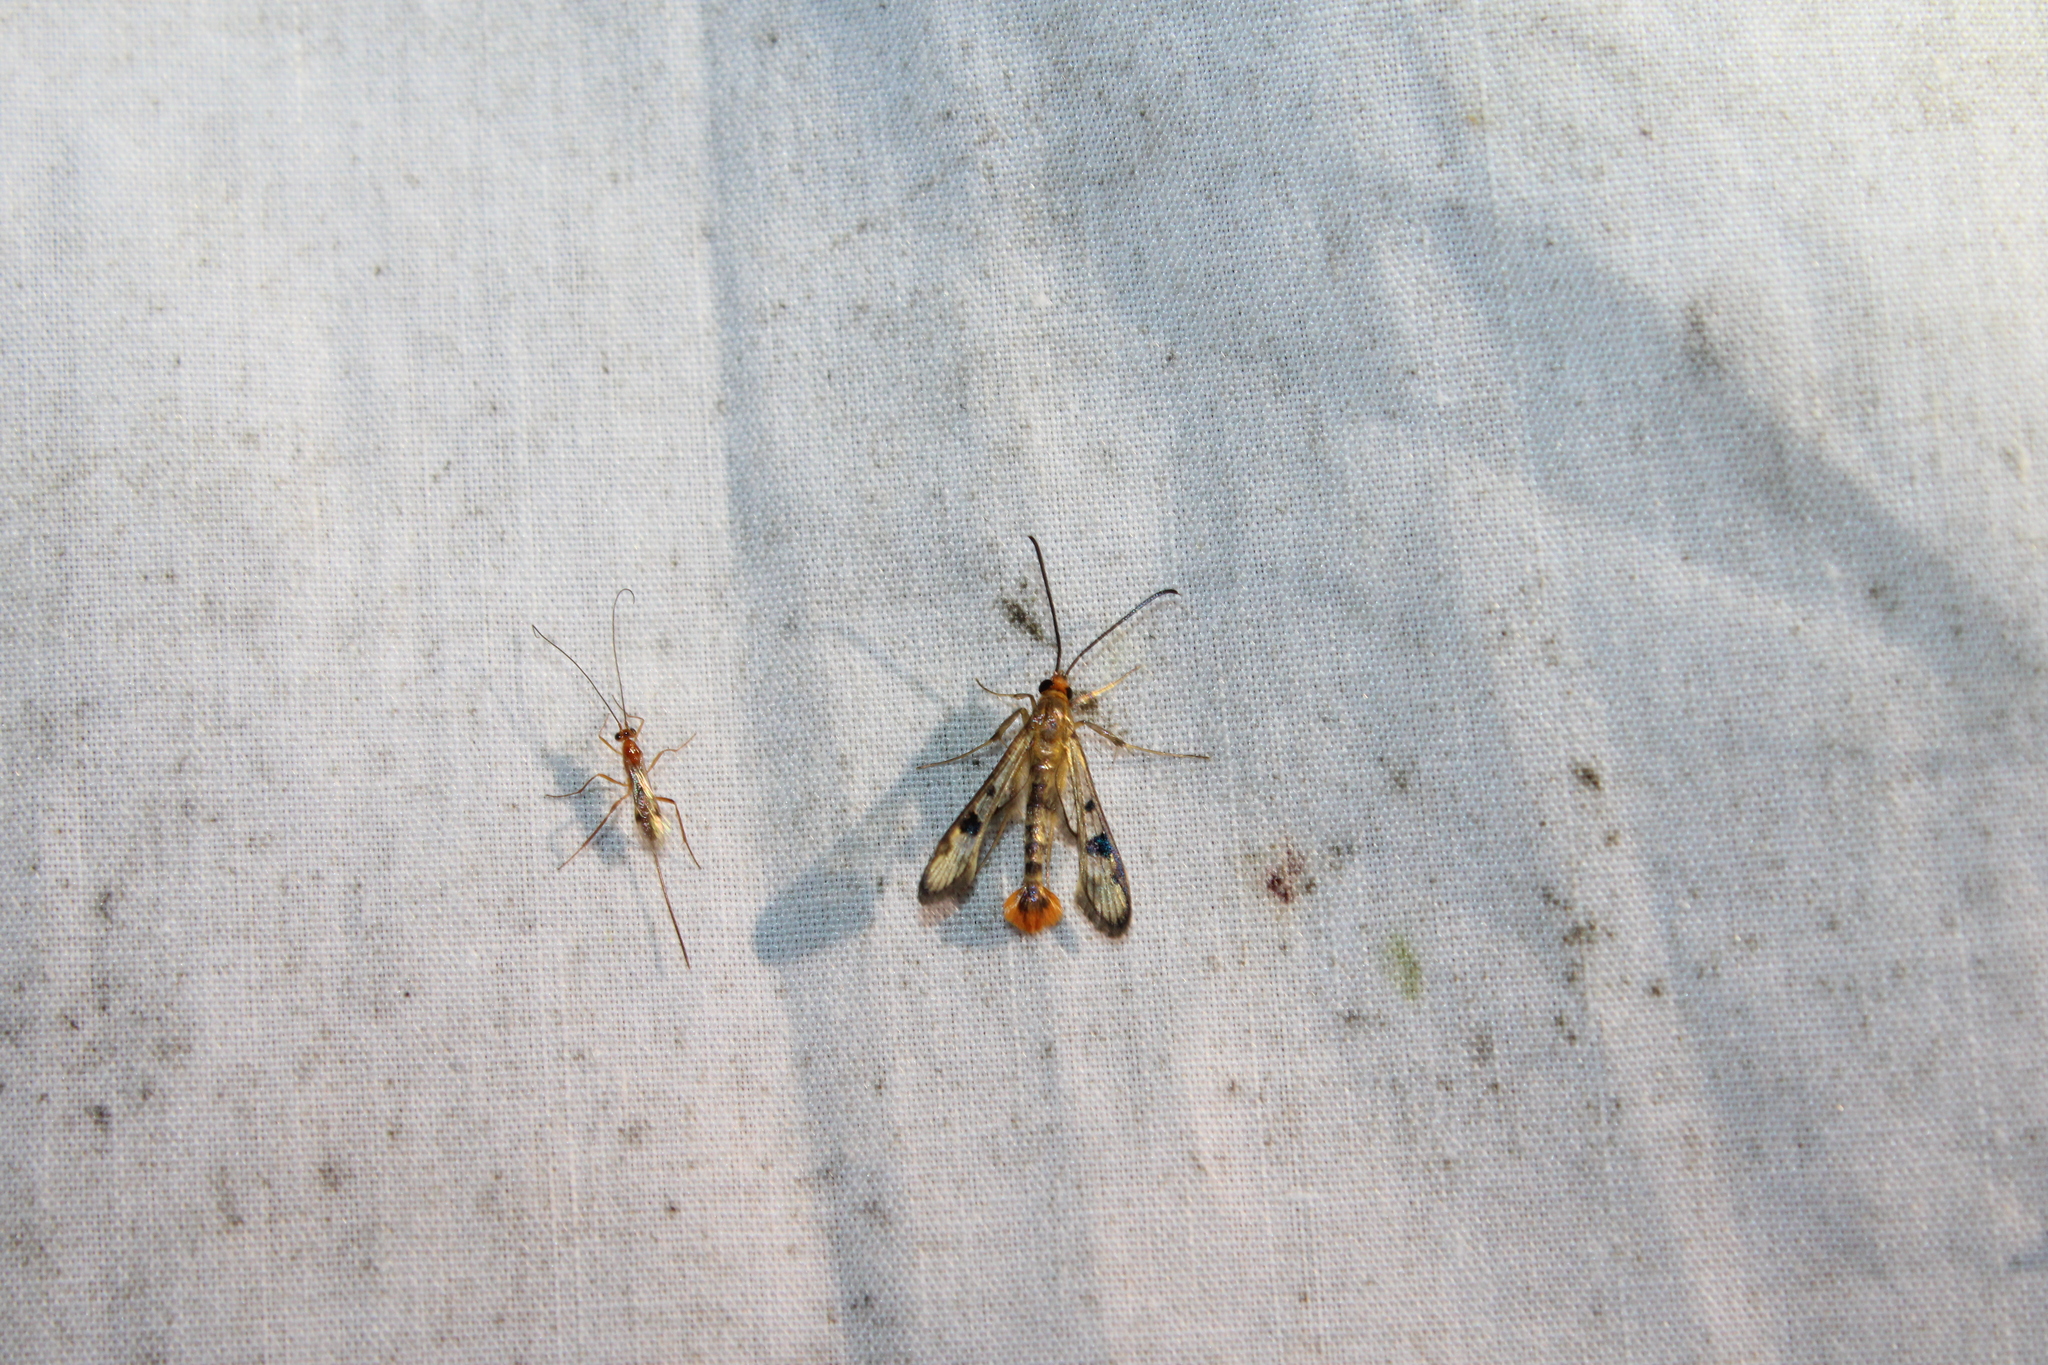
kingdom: Animalia
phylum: Arthropoda
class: Insecta
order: Lepidoptera
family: Sesiidae
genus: Synanthedon
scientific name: Synanthedon acerni
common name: Maple callus borer moth
